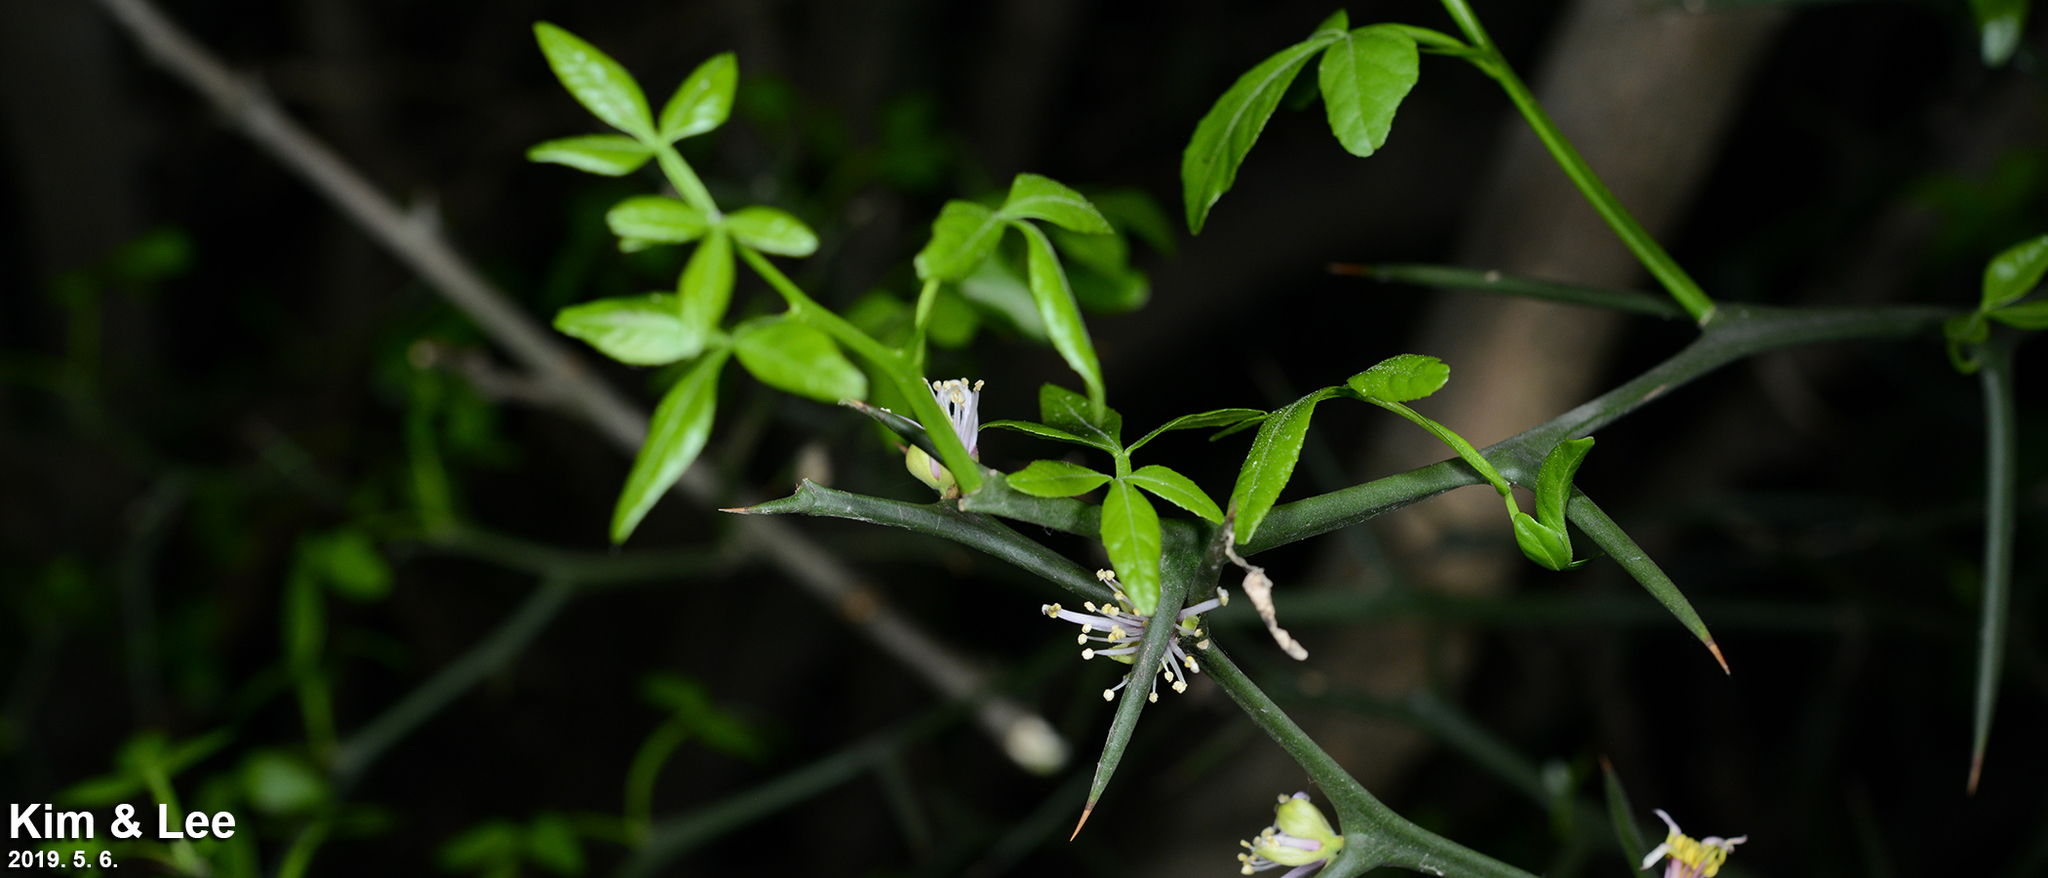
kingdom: Plantae
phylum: Tracheophyta
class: Magnoliopsida
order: Sapindales
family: Rutaceae
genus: Citrus
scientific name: Citrus trifoliata
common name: Japanese bitter-orange
